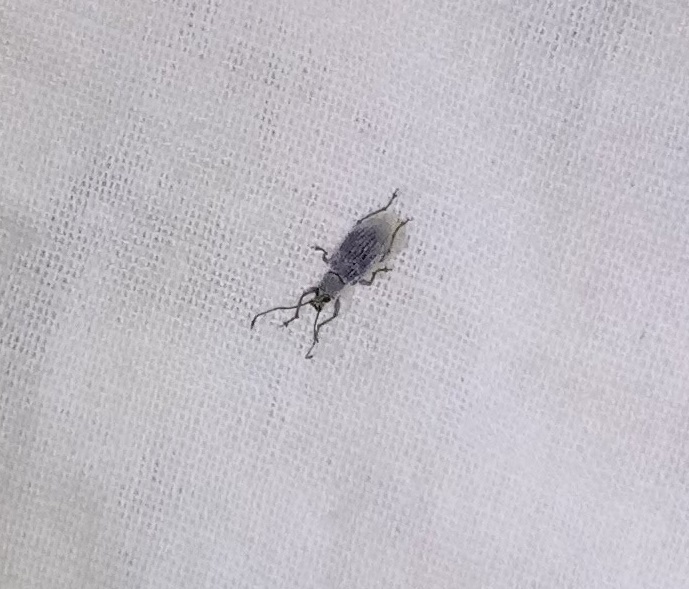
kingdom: Animalia
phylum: Arthropoda
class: Insecta
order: Coleoptera
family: Curculionidae
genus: Cyrtepistomus
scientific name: Cyrtepistomus castaneus
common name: Weevil
